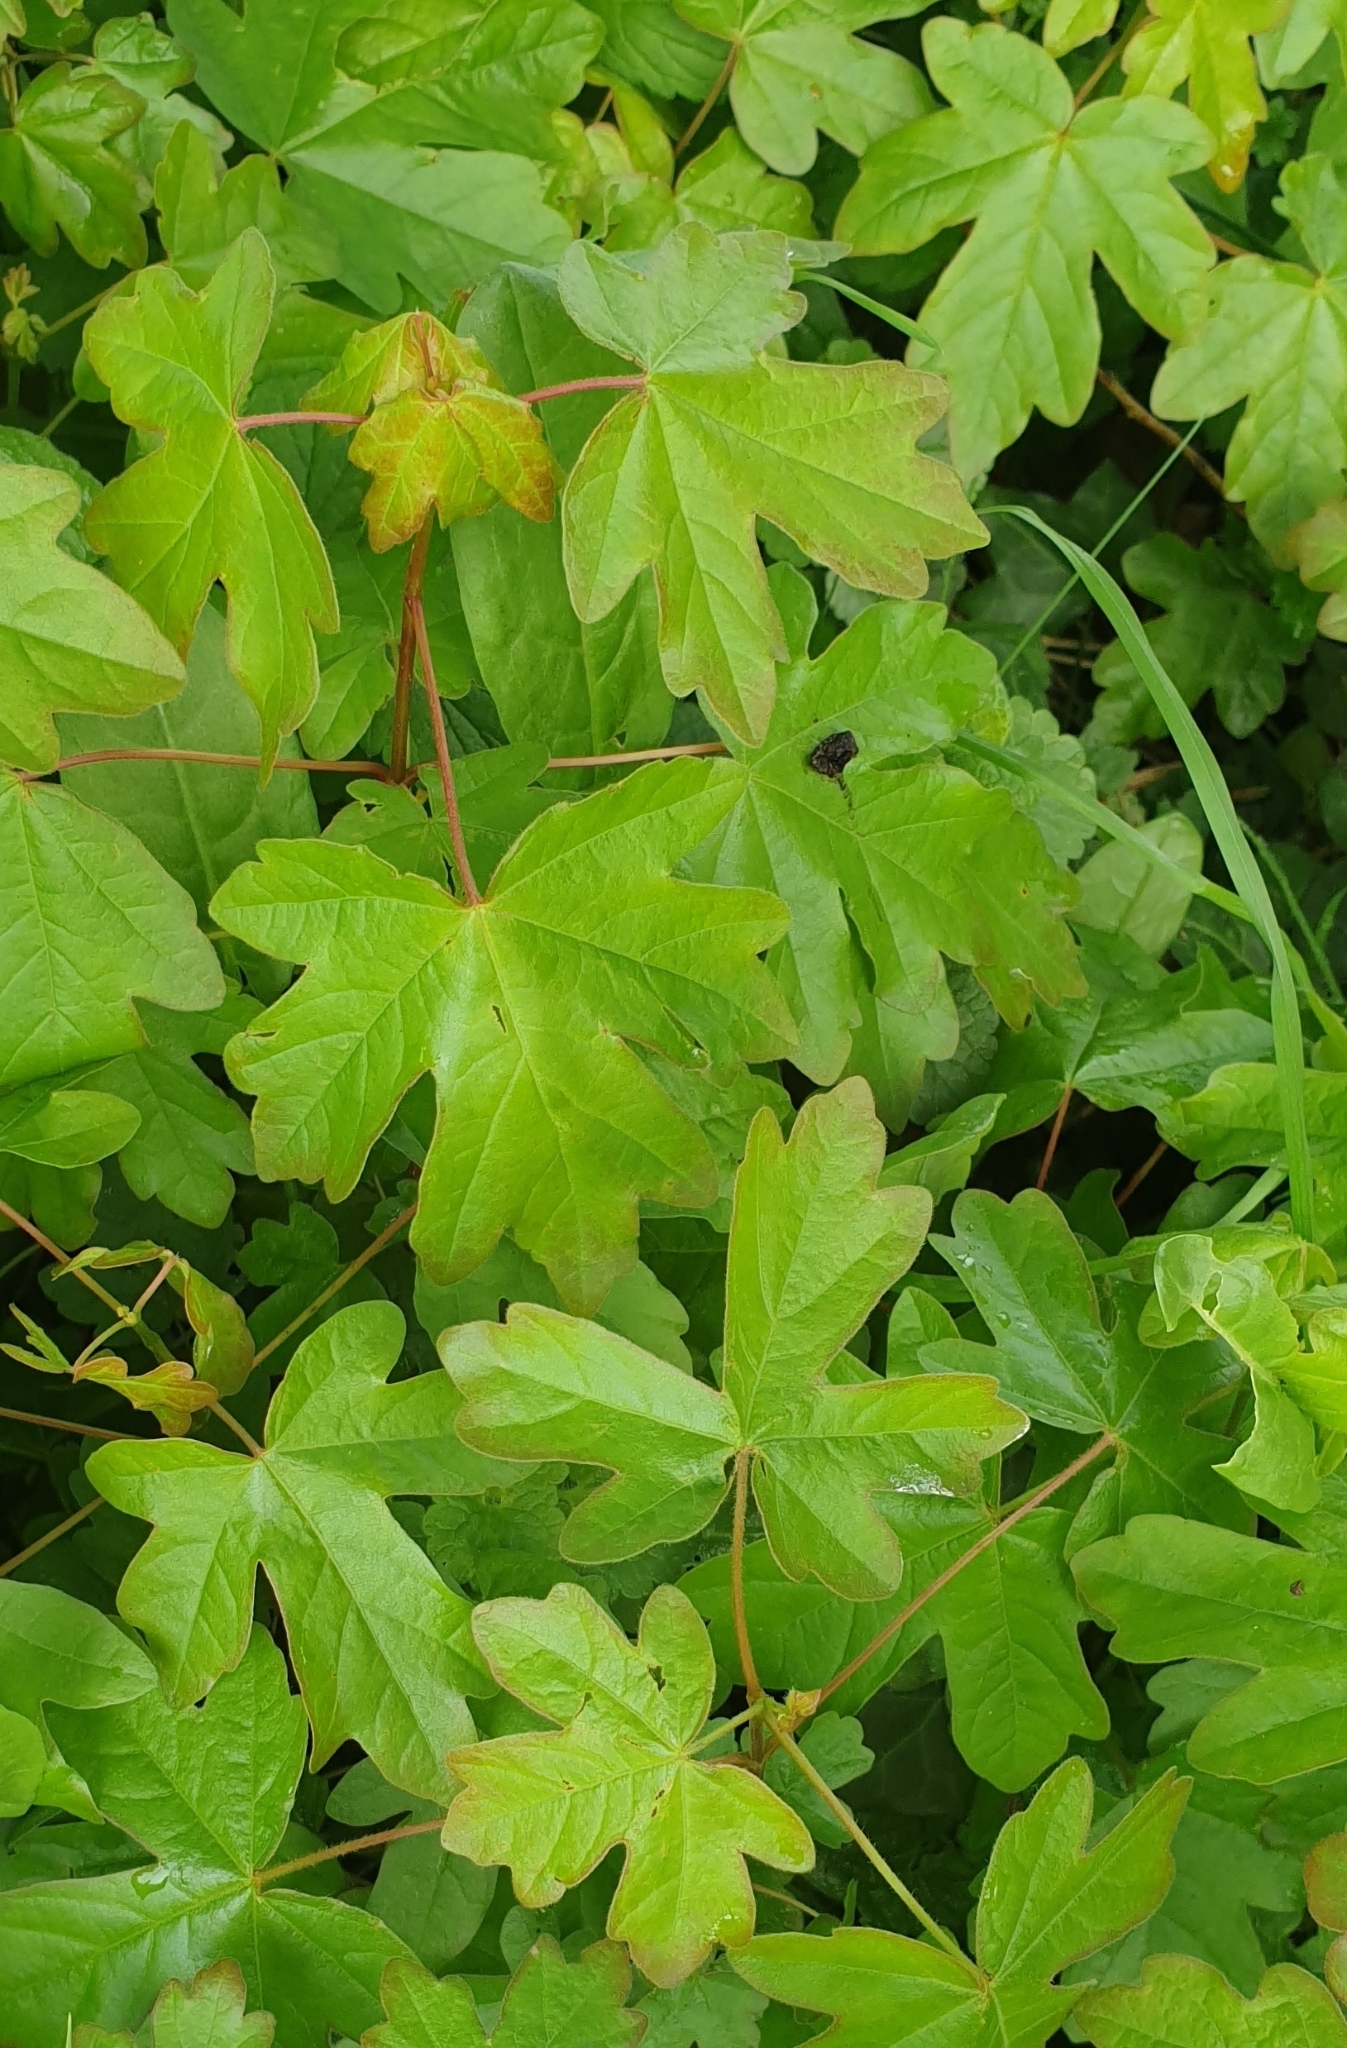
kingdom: Plantae
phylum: Tracheophyta
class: Magnoliopsida
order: Sapindales
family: Sapindaceae
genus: Acer
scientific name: Acer campestre
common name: Field maple
